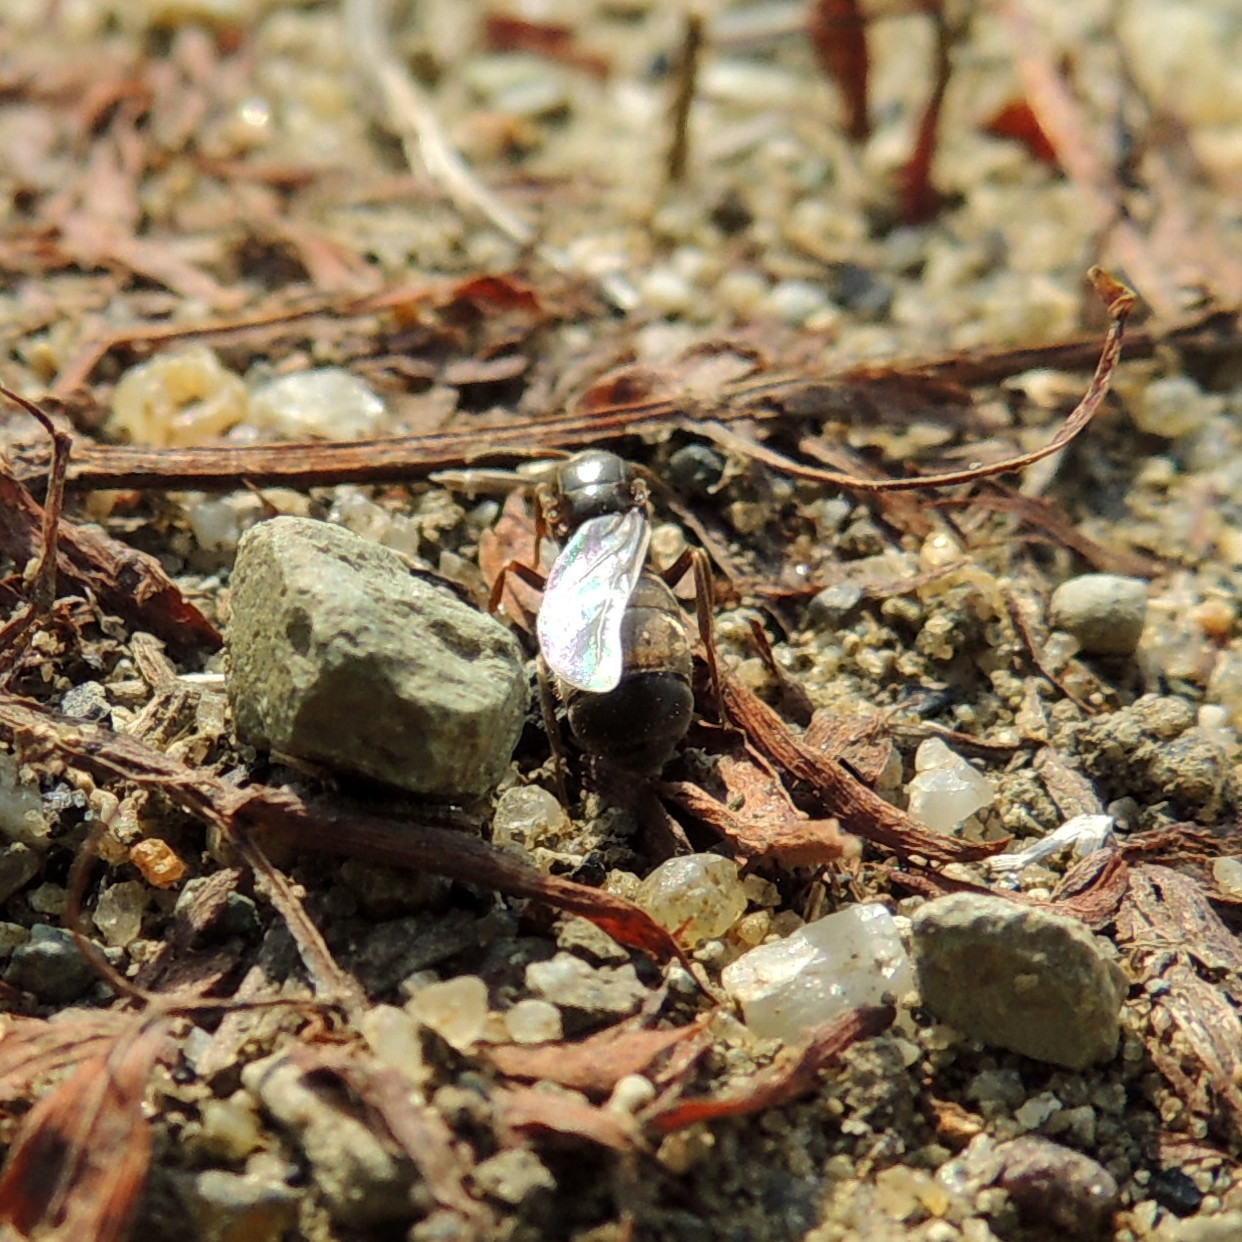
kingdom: Animalia
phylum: Arthropoda
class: Insecta
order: Hymenoptera
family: Formicidae
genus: Lasius
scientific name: Lasius niger
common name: Small black ant
